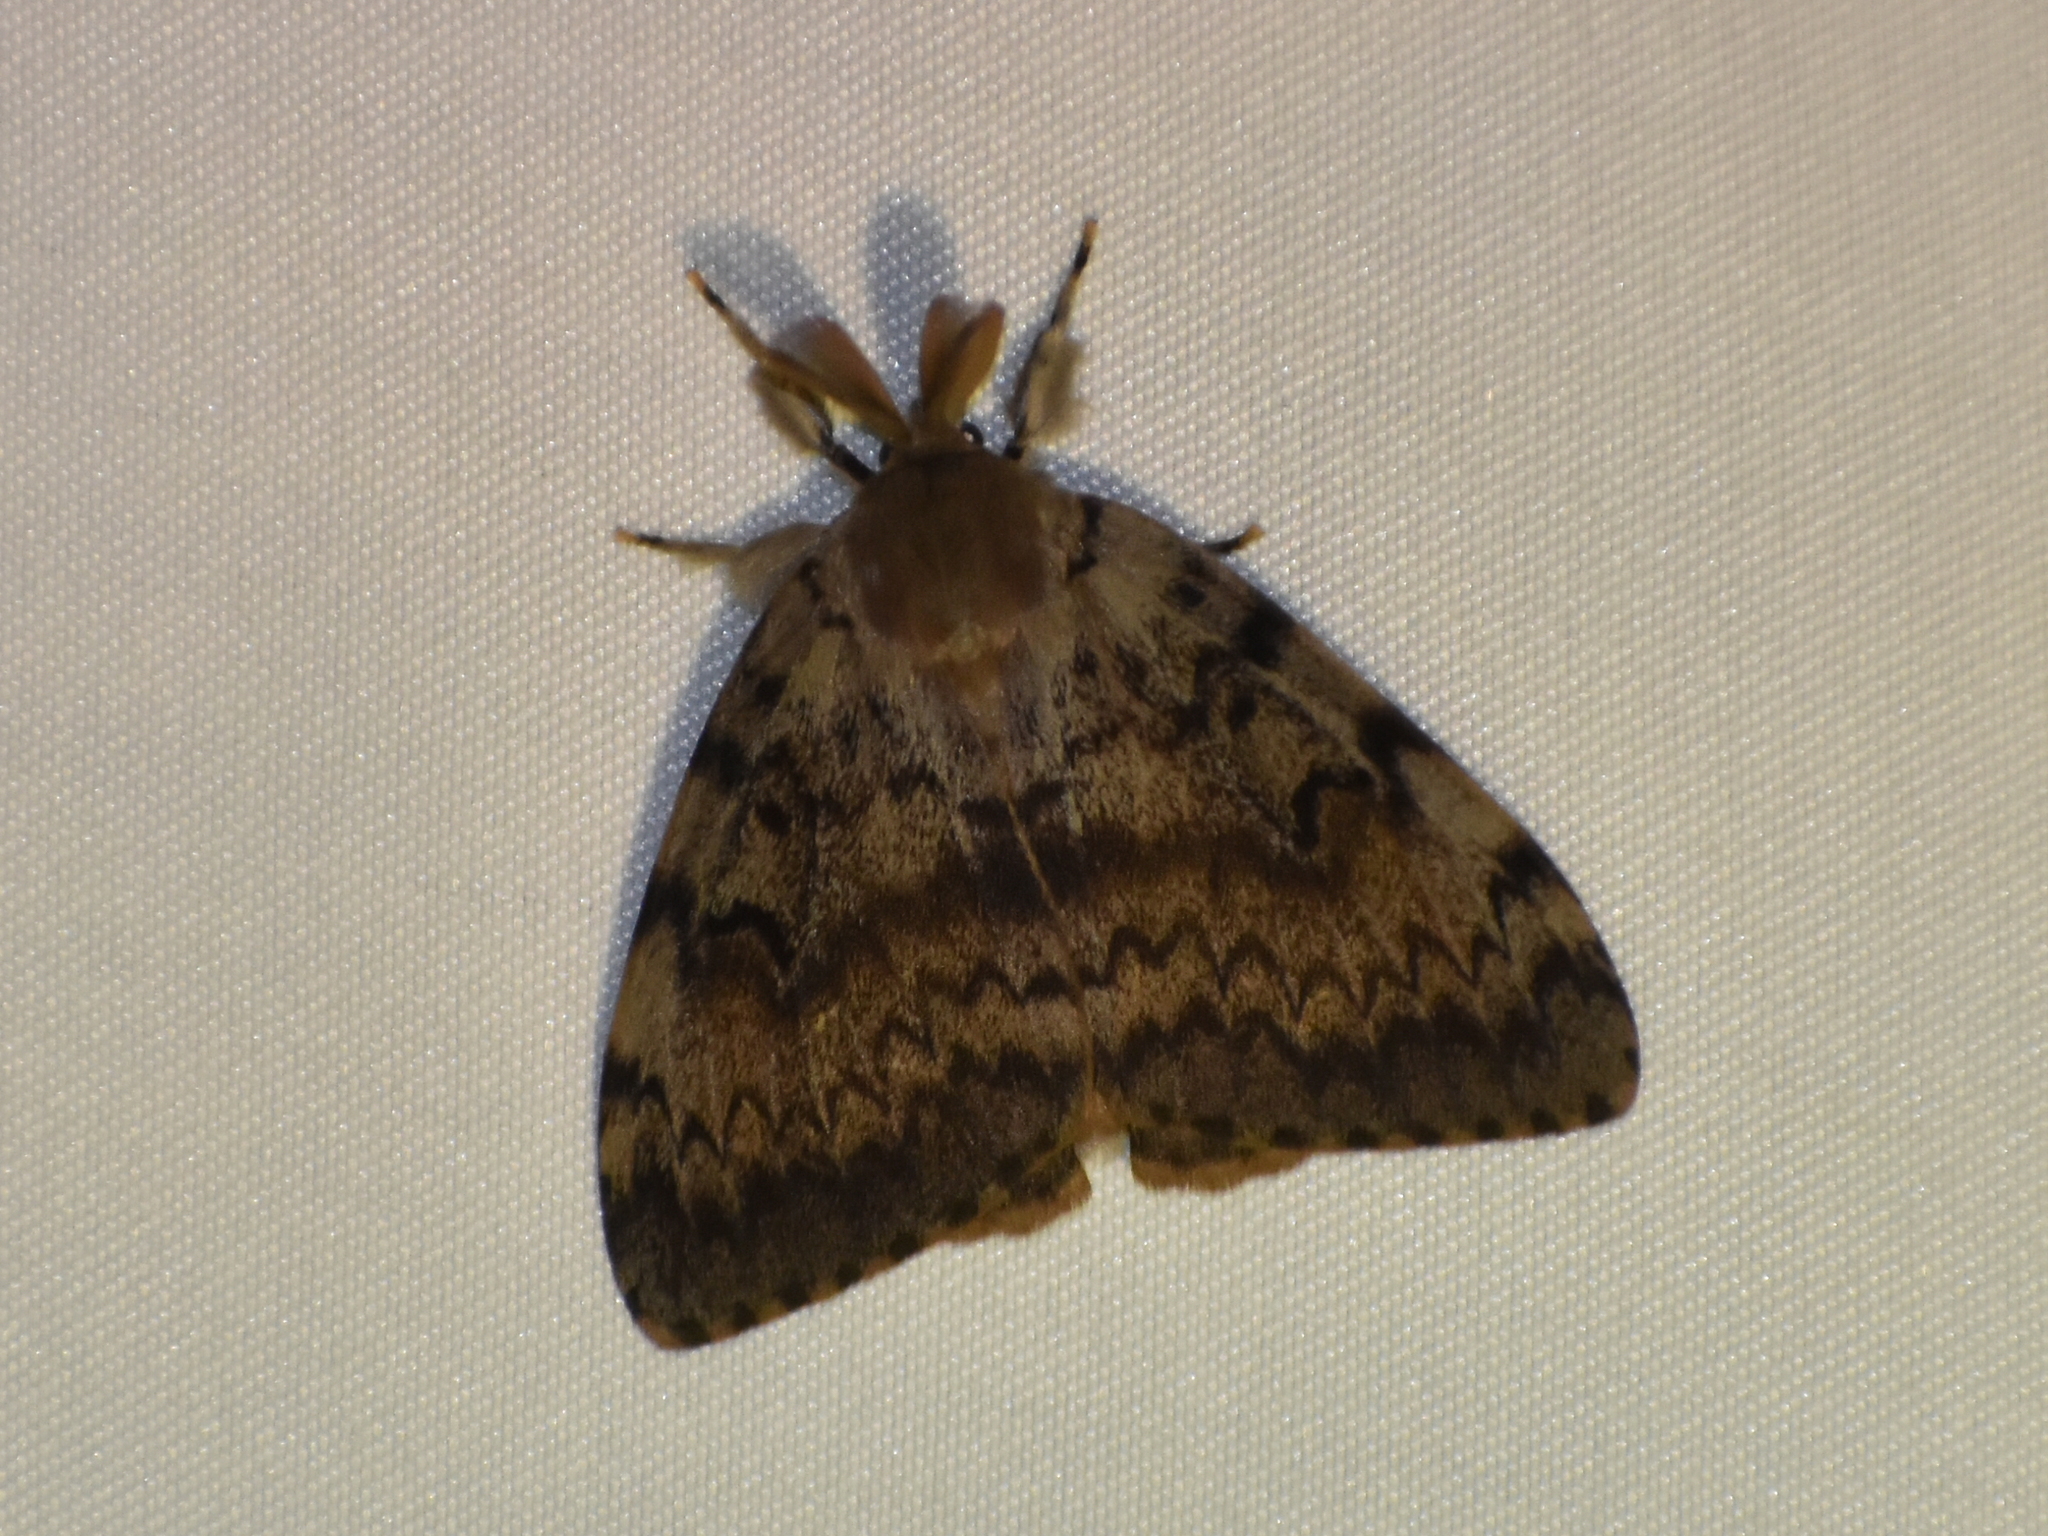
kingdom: Animalia
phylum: Arthropoda
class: Insecta
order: Lepidoptera
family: Erebidae
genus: Lymantria
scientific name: Lymantria dispar
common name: Gypsy moth
